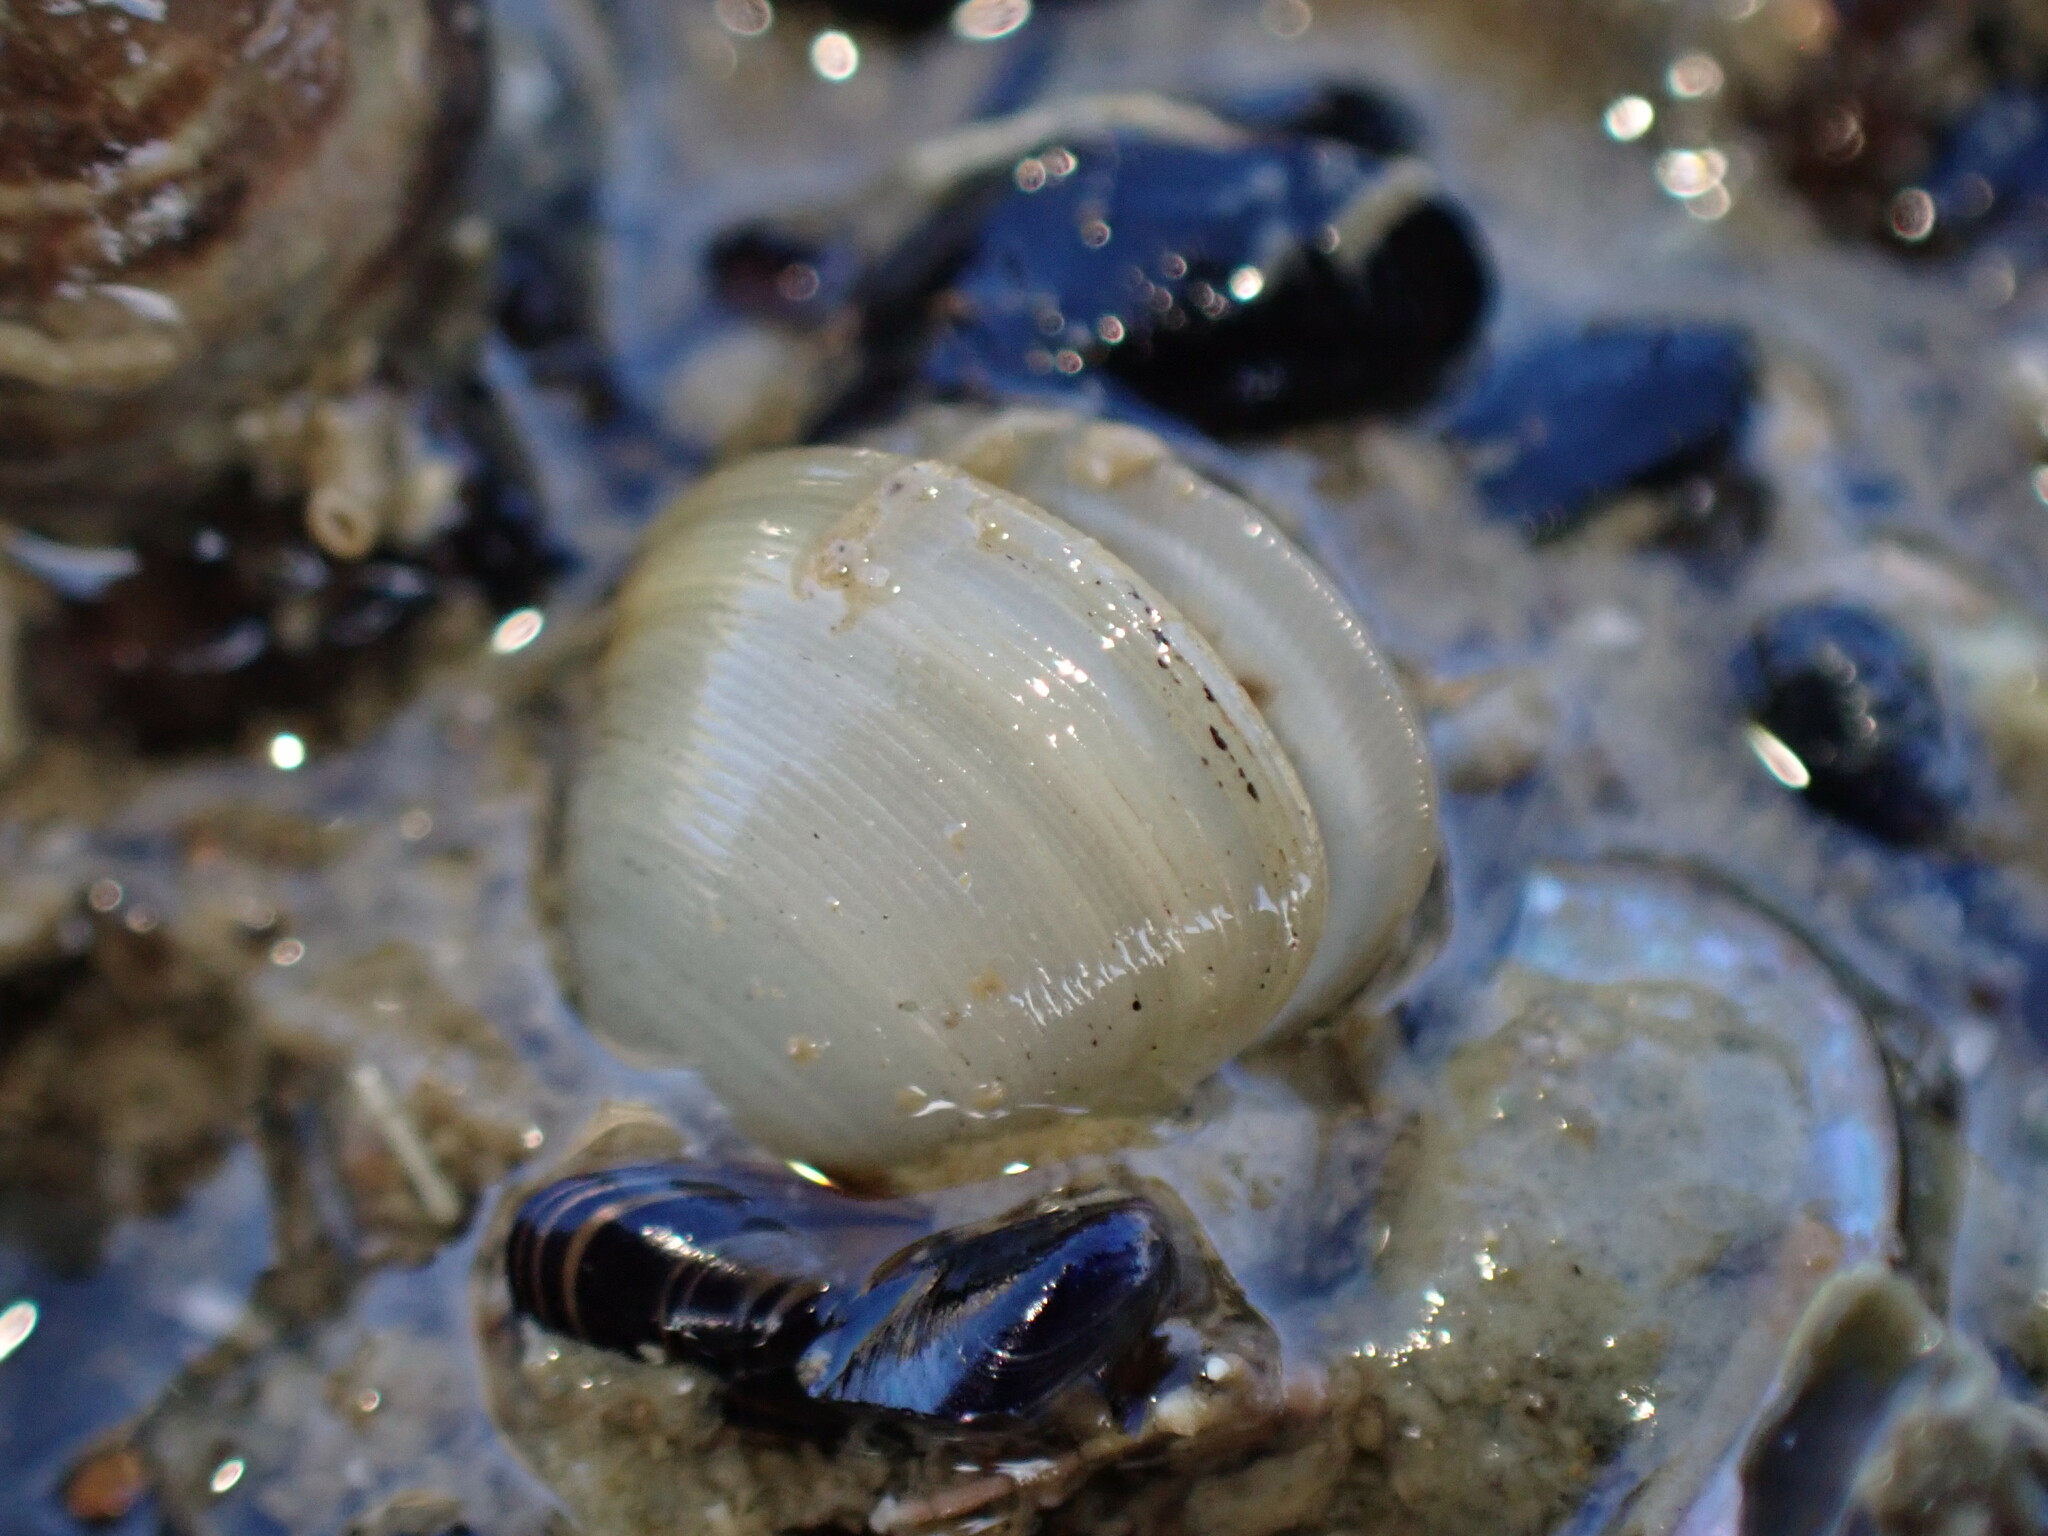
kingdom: Animalia
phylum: Mollusca
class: Bivalvia
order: Nuculida
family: Nuculidae
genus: Linucula
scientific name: Linucula hartvigiana
